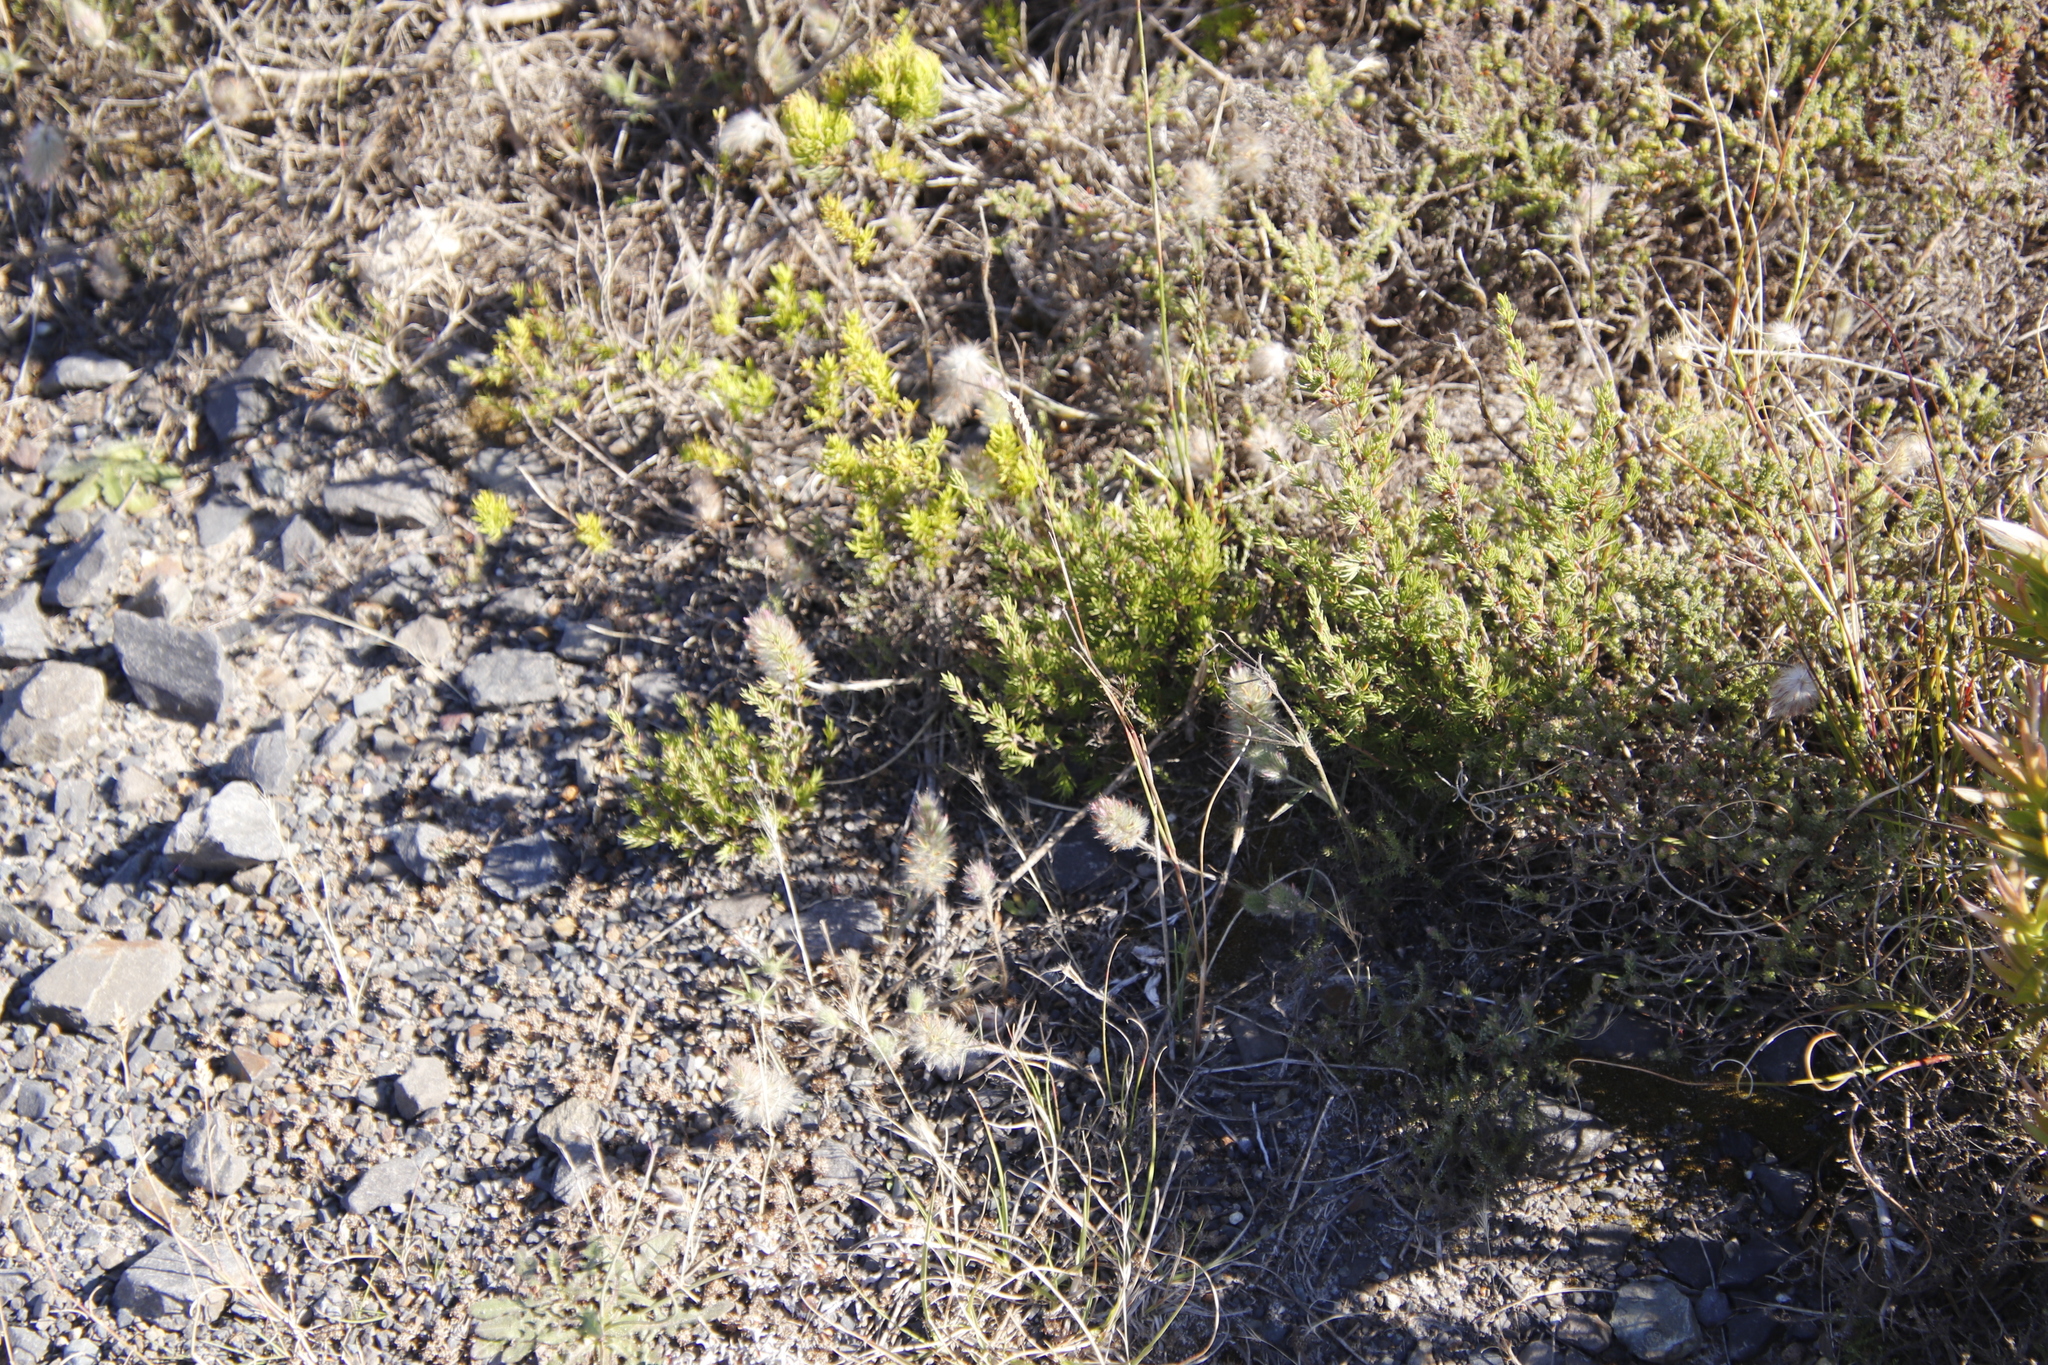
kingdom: Plantae
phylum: Tracheophyta
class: Magnoliopsida
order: Fabales
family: Fabaceae
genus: Trifolium
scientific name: Trifolium angustifolium
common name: Narrow clover
